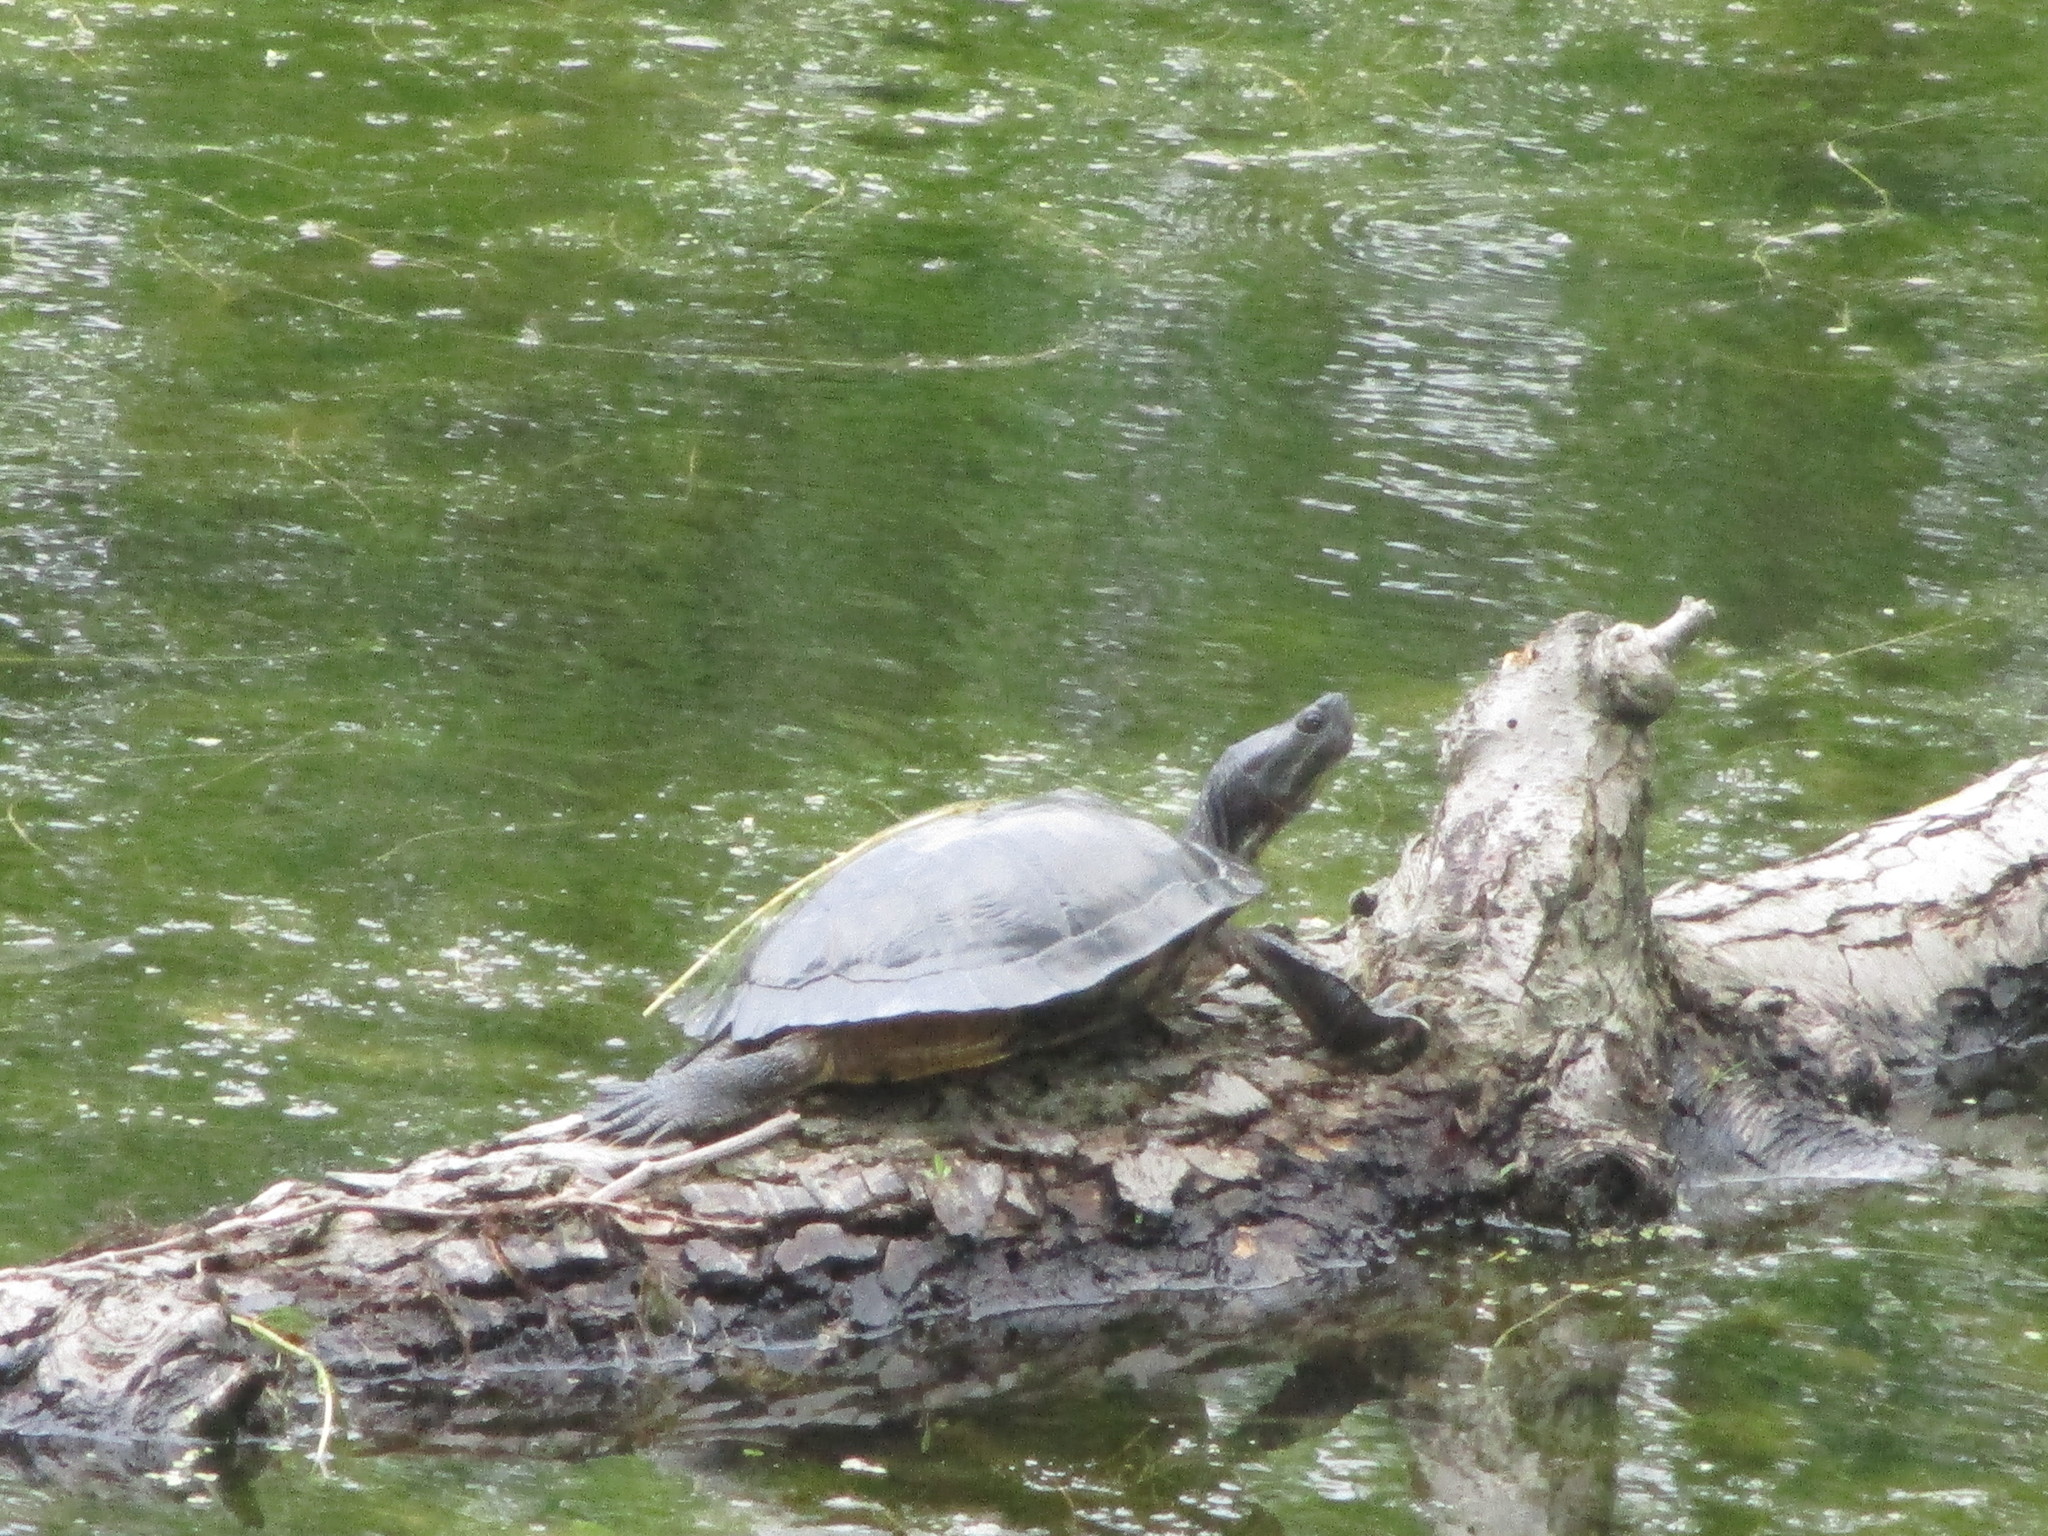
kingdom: Animalia
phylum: Chordata
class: Testudines
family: Emydidae
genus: Trachemys
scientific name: Trachemys scripta
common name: Slider
